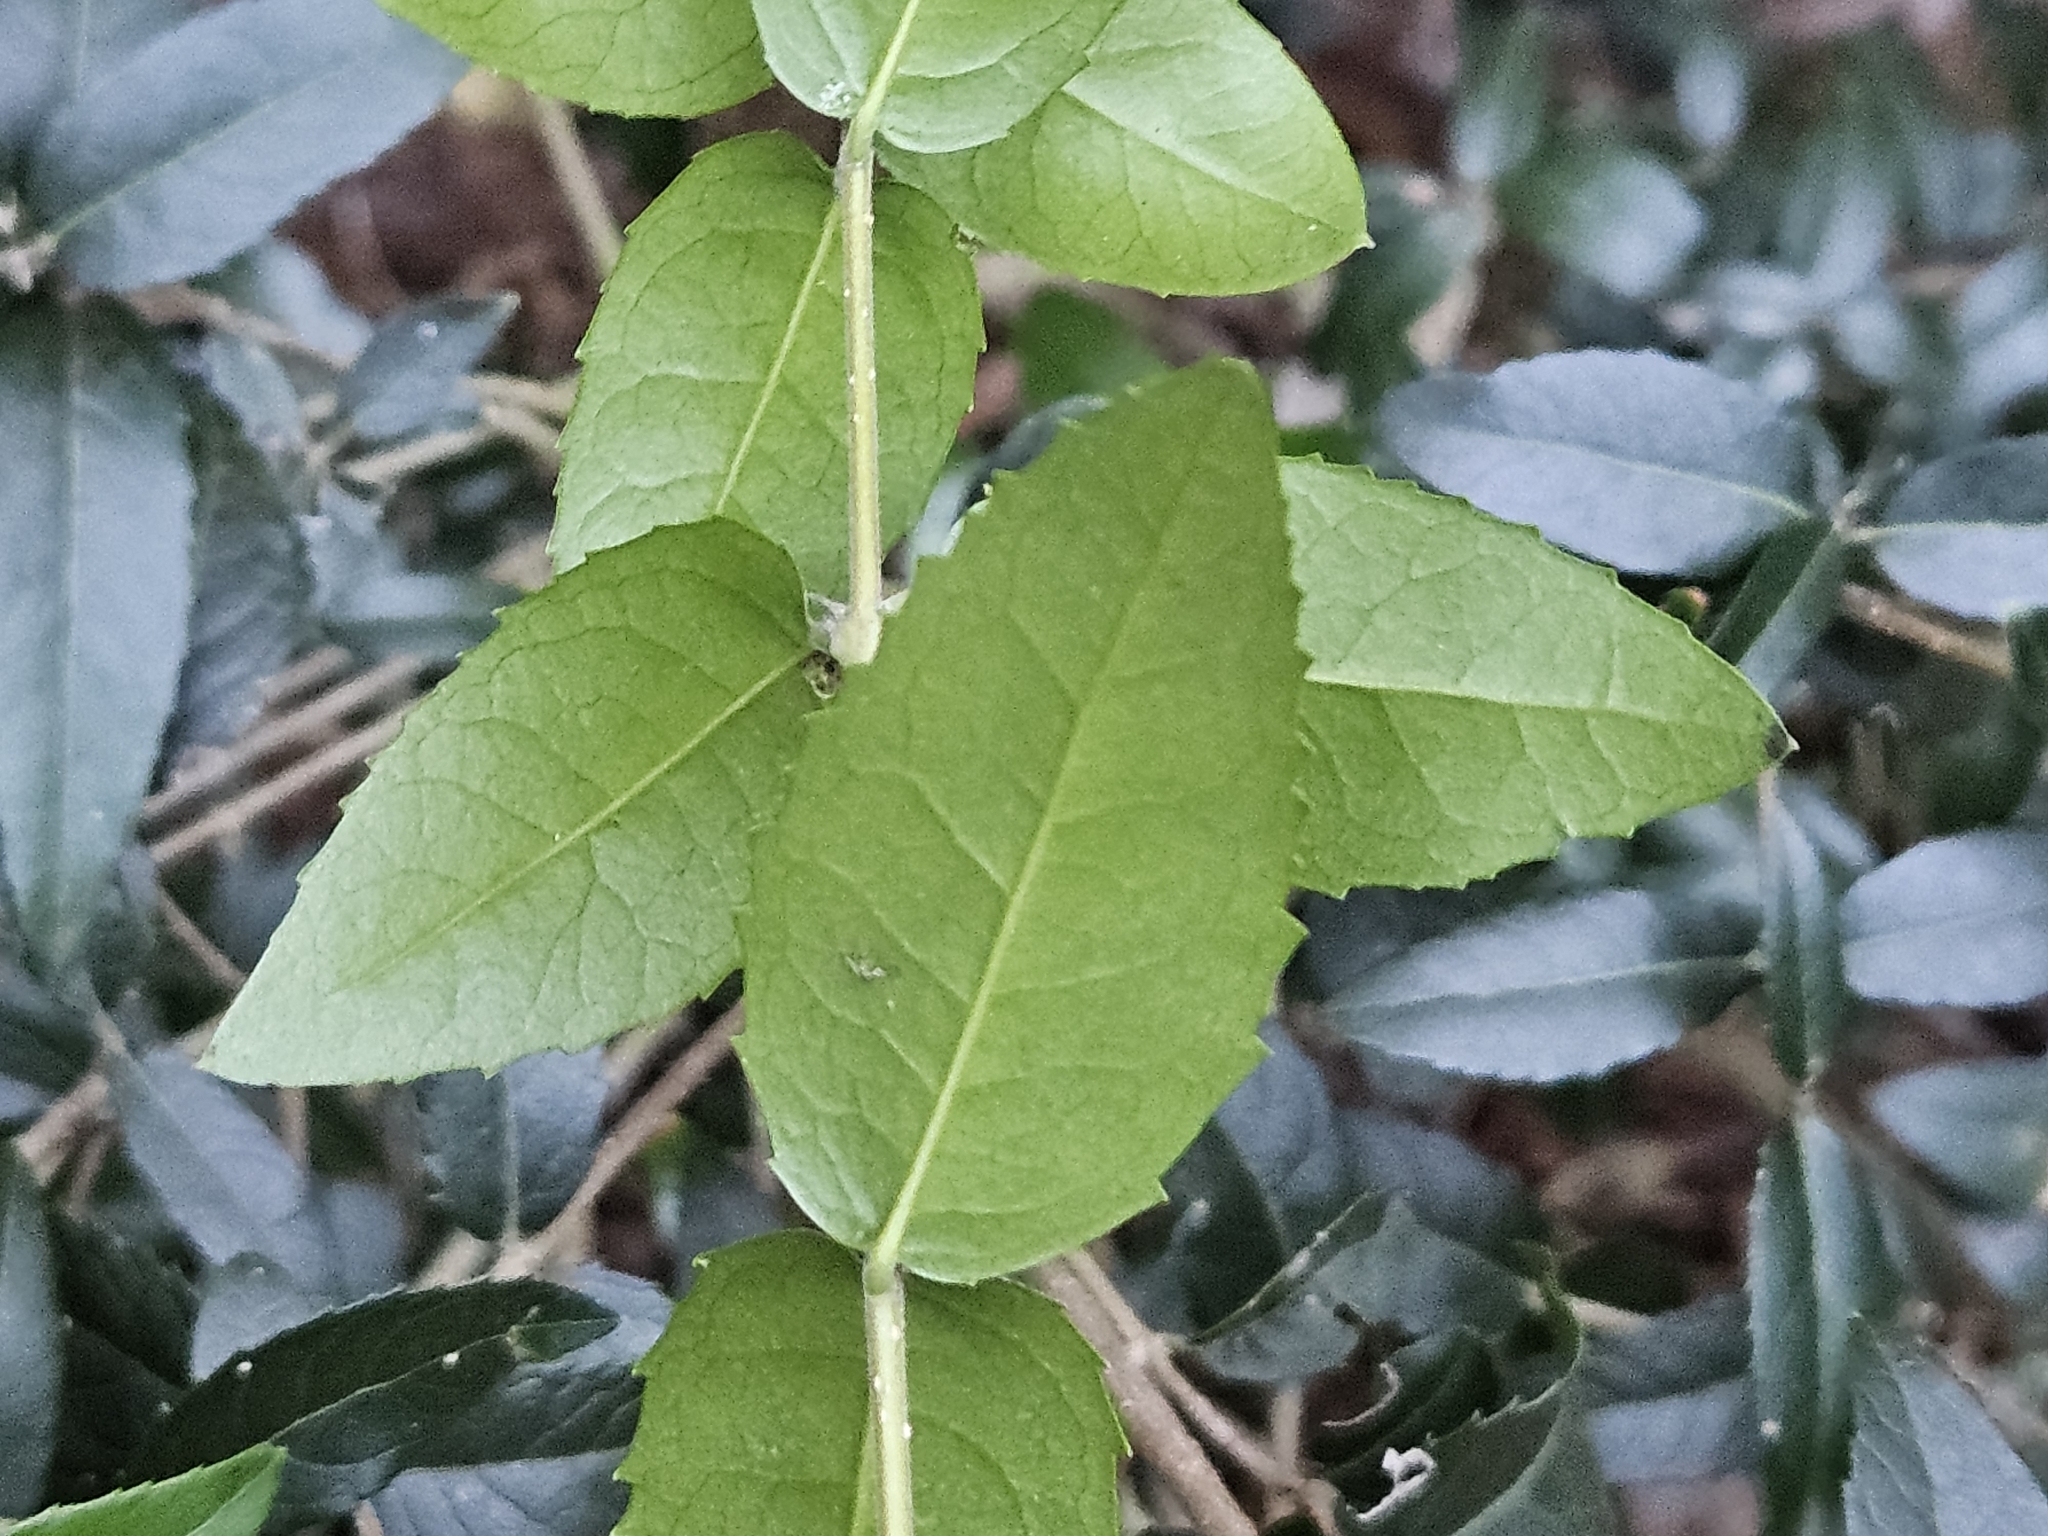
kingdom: Plantae
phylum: Tracheophyta
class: Magnoliopsida
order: Lamiales
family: Oleaceae
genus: Phillyrea
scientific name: Phillyrea latifolia
